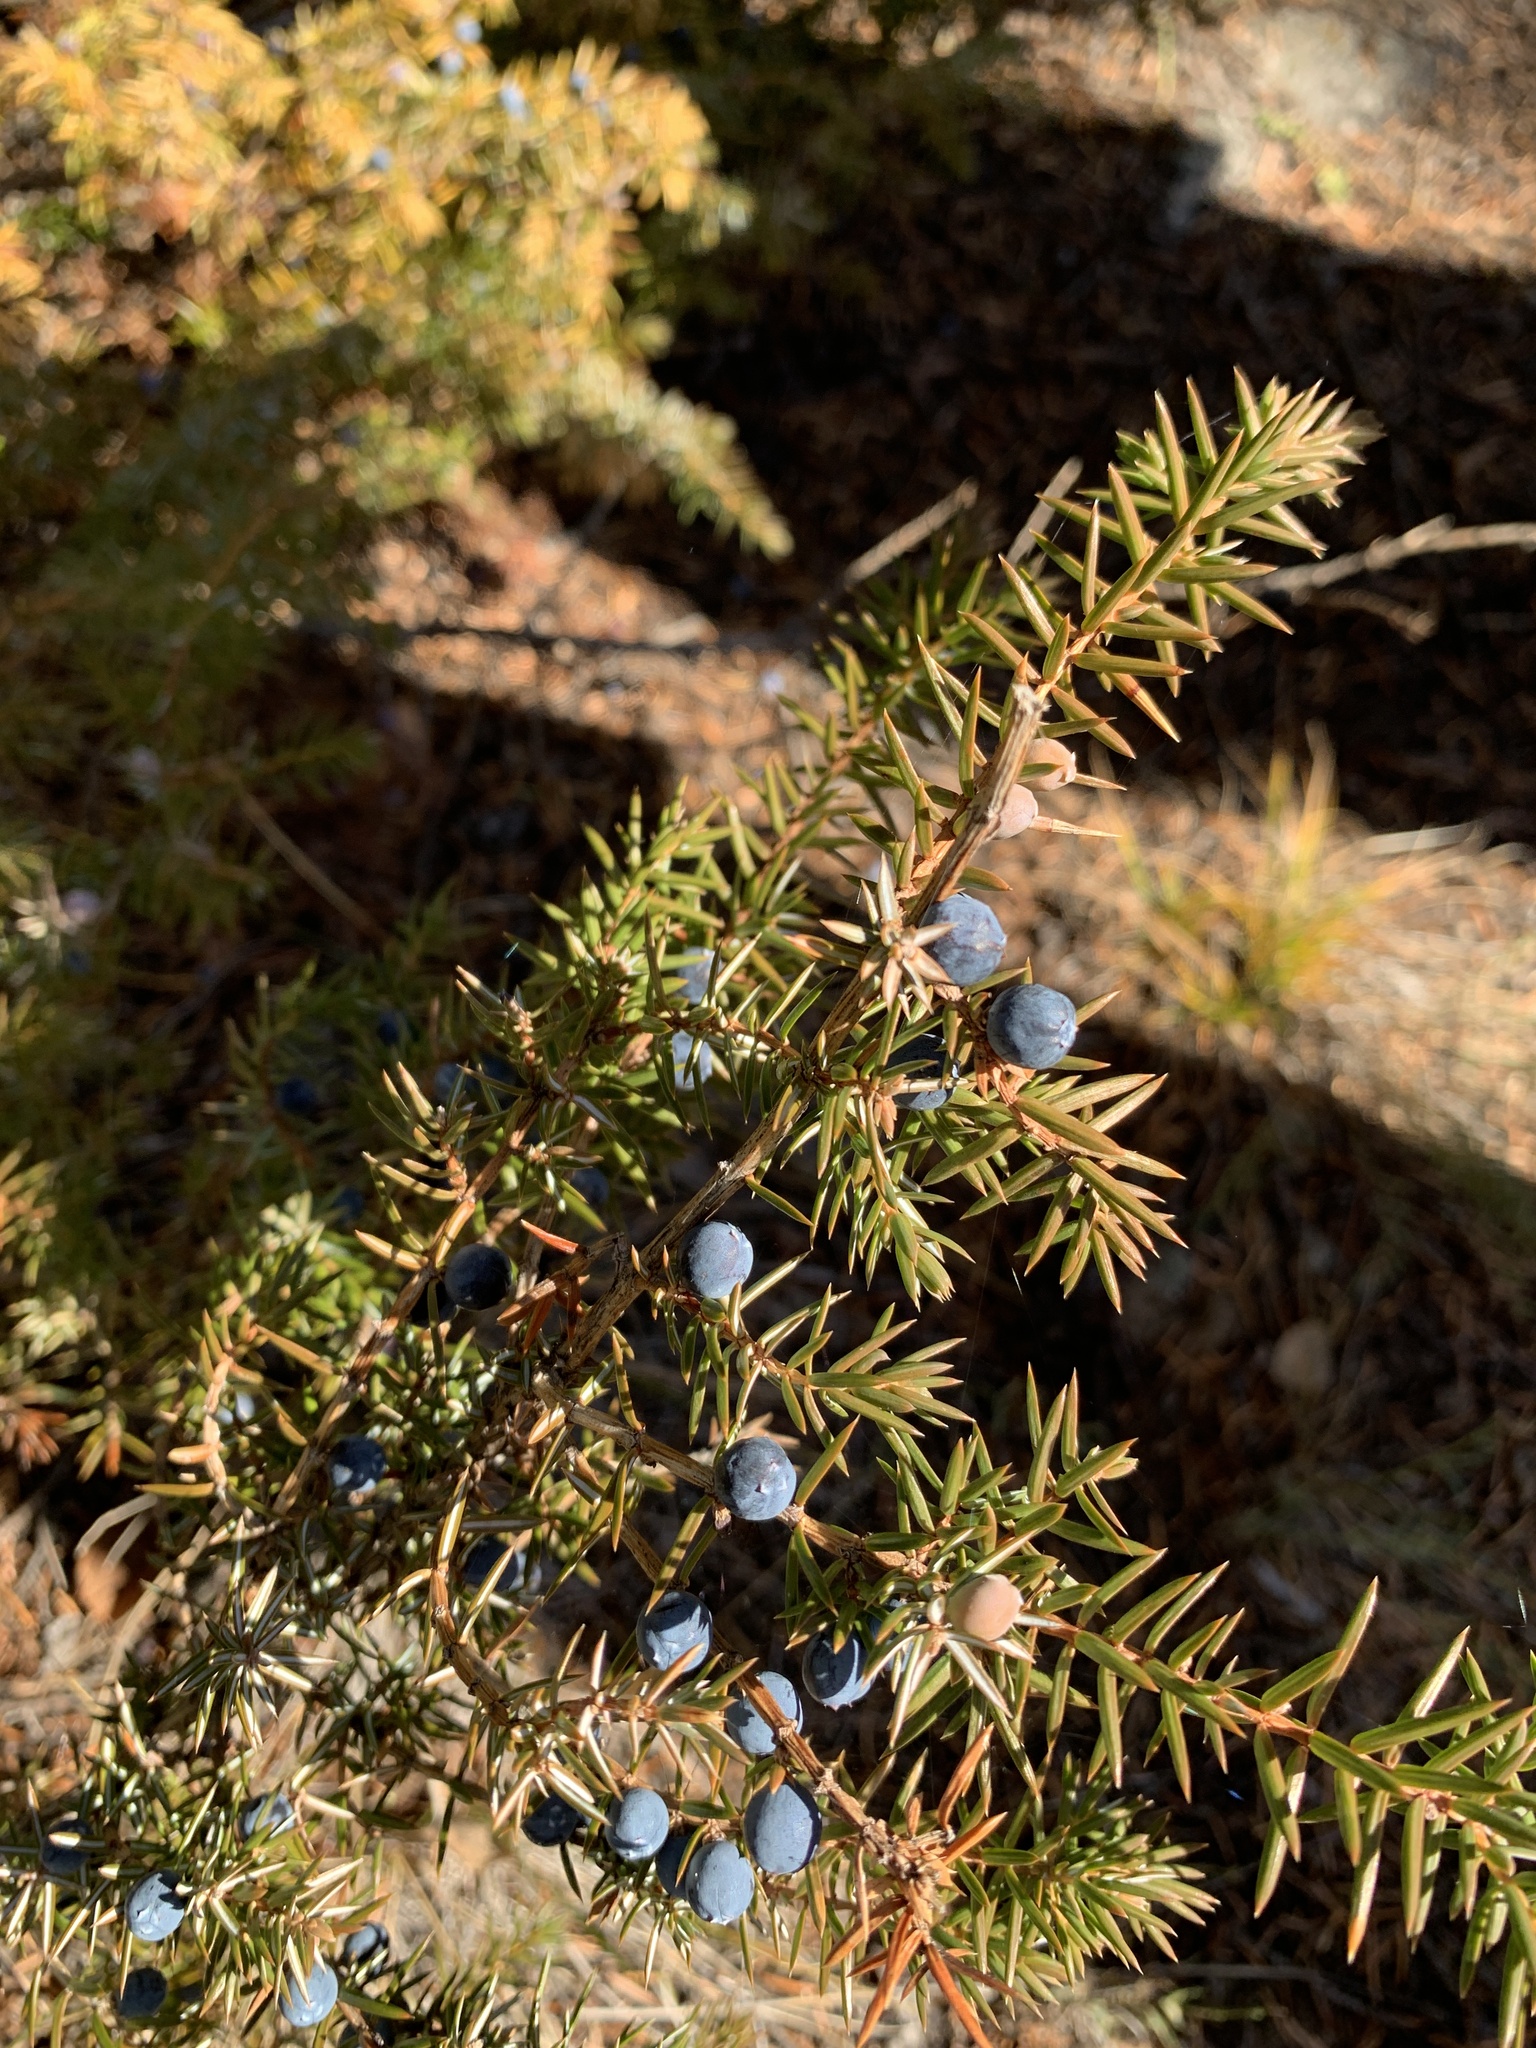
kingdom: Plantae
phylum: Tracheophyta
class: Pinopsida
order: Pinales
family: Cupressaceae
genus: Juniperus
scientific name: Juniperus communis
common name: Common juniper
